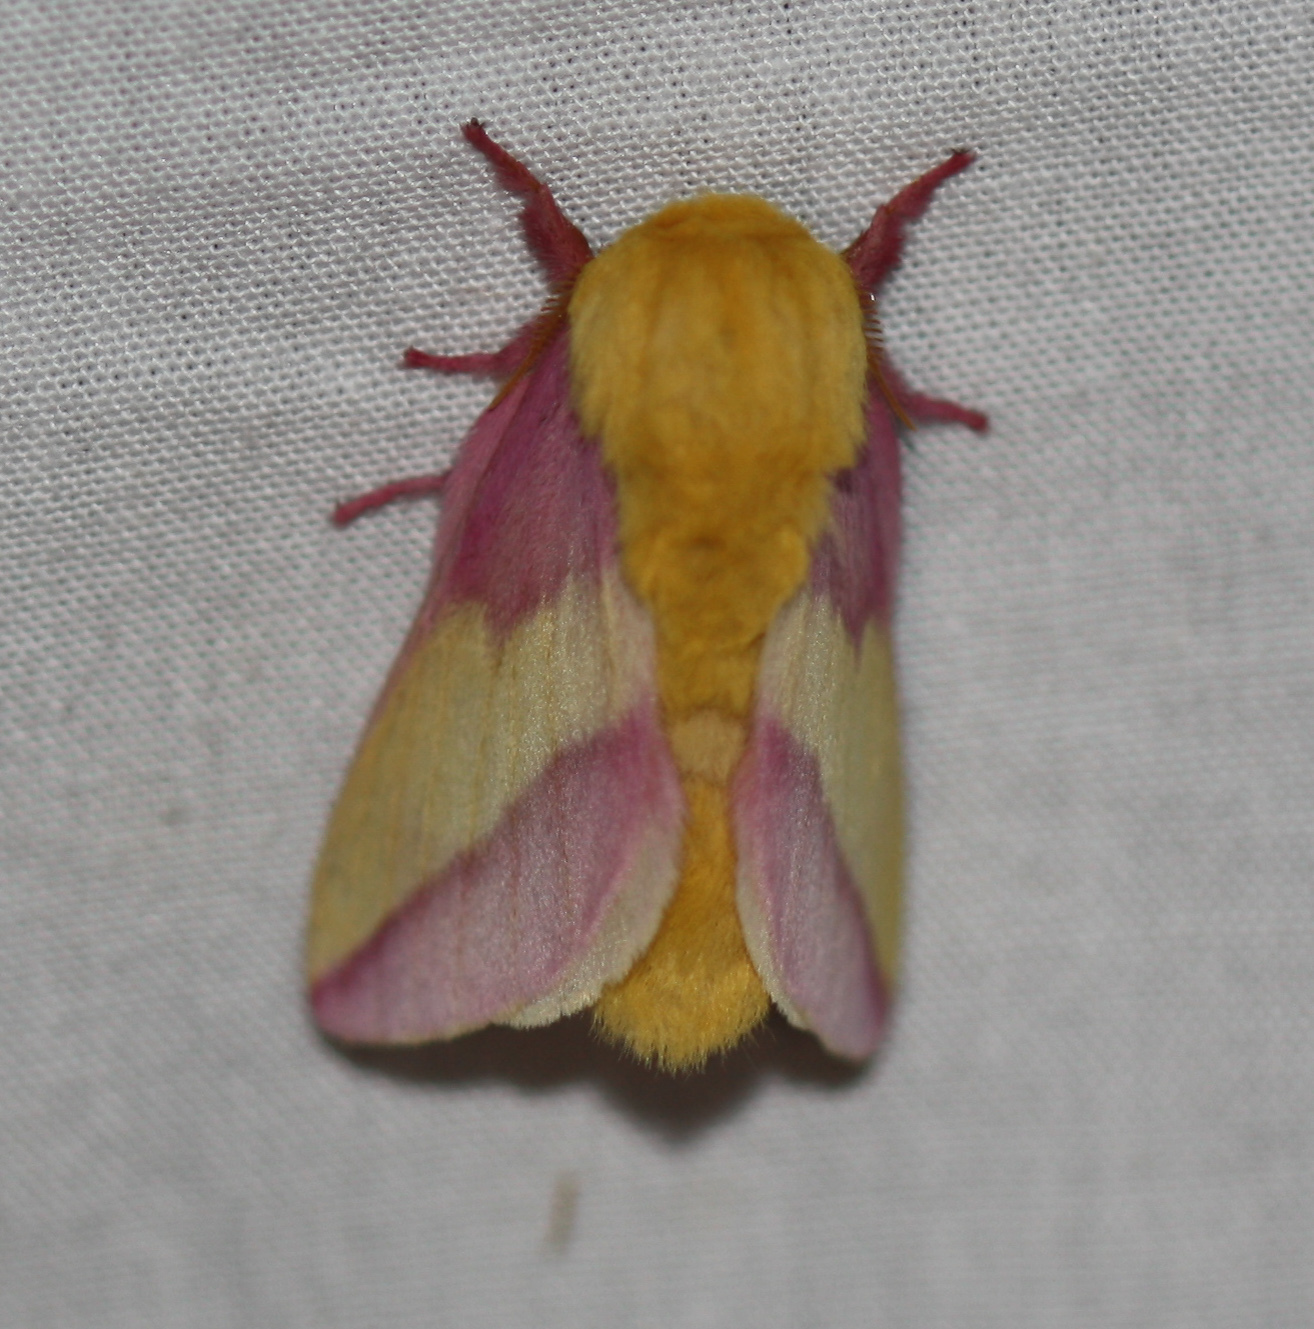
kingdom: Animalia
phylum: Arthropoda
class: Insecta
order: Lepidoptera
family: Saturniidae
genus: Dryocampa
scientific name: Dryocampa rubicunda
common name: Rosy maple moth
